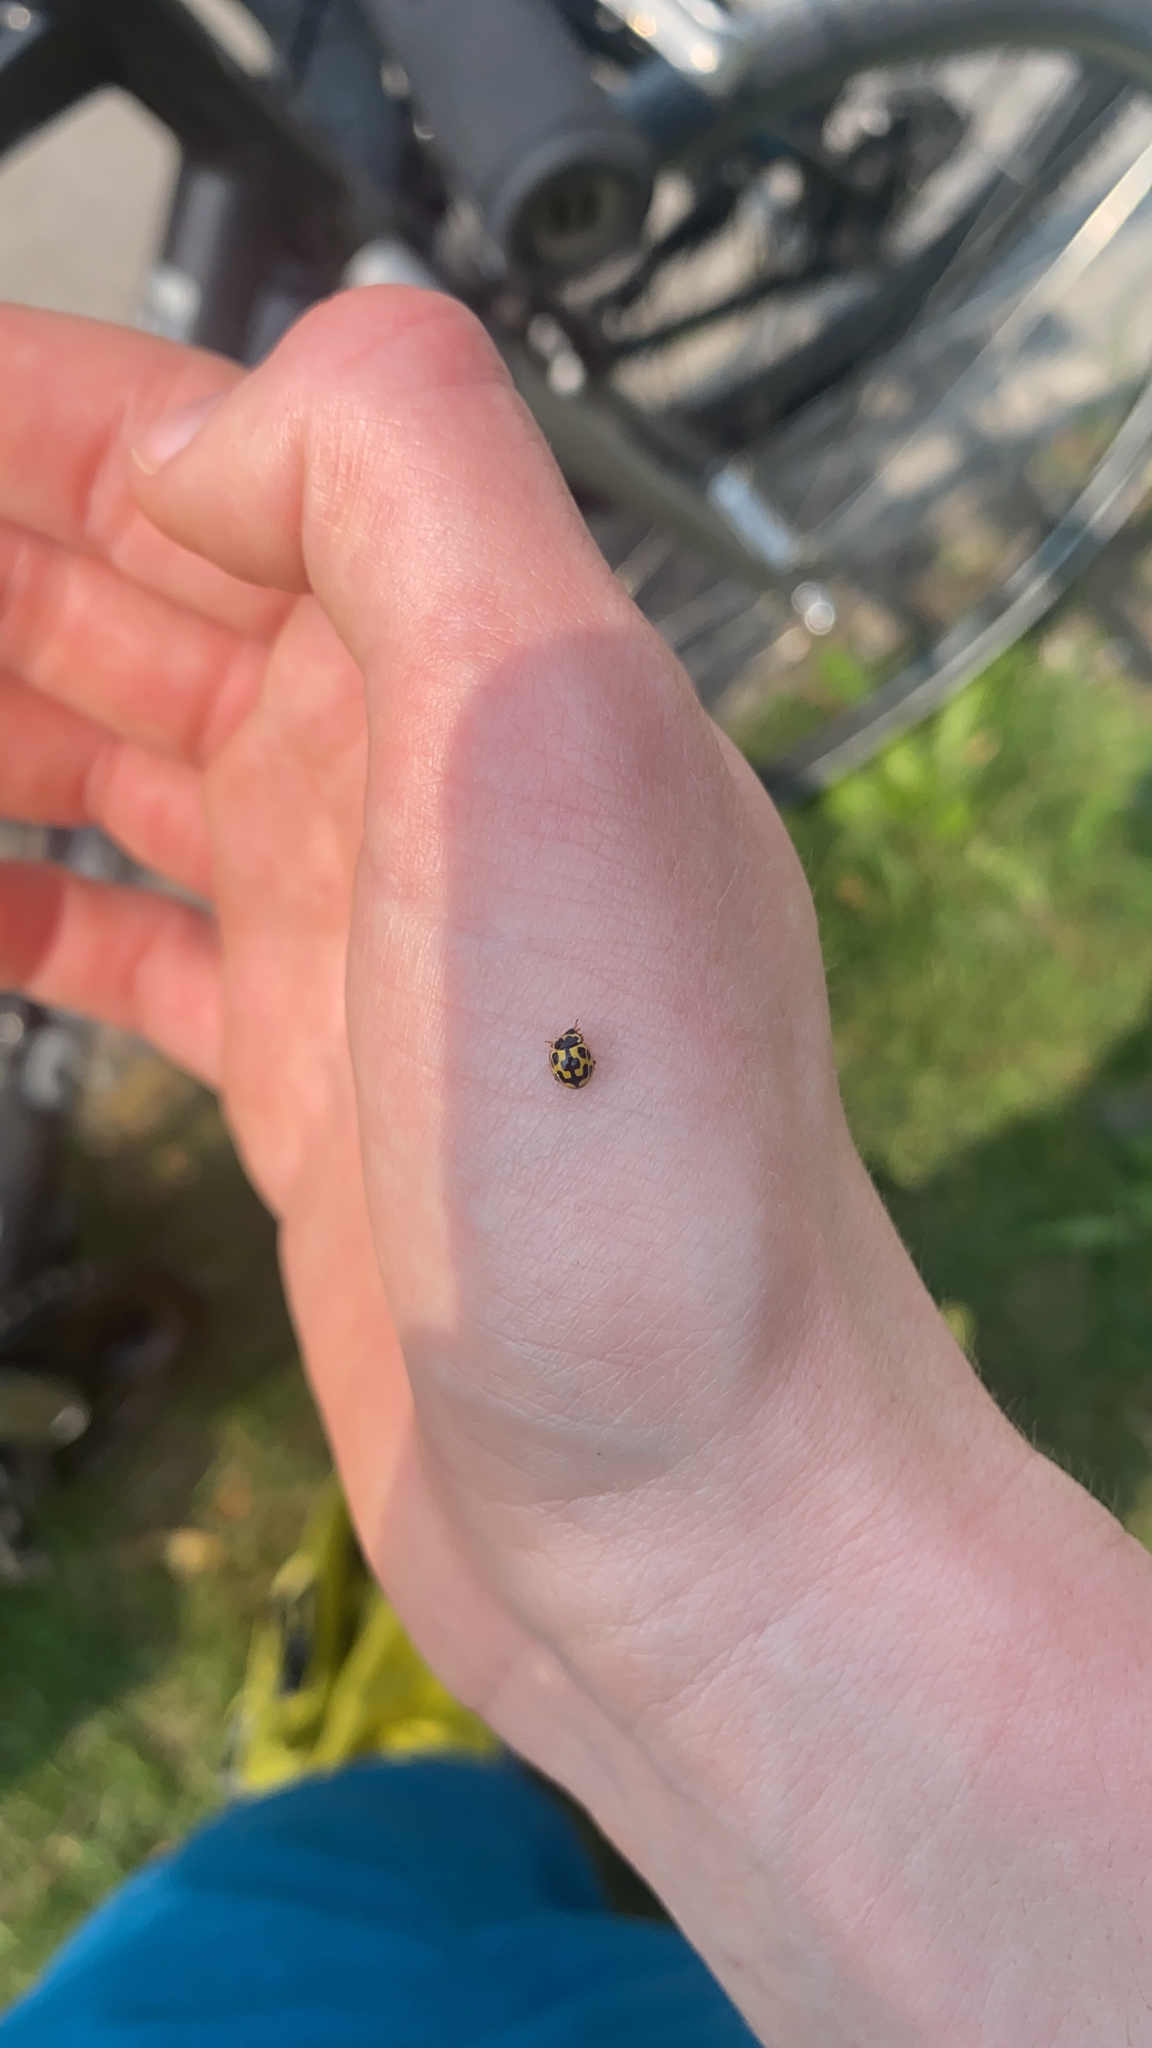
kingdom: Animalia
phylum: Arthropoda
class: Insecta
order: Coleoptera
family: Coccinellidae
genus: Propylaea
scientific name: Propylaea quatuordecimpunctata
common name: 14-spotted ladybird beetle
